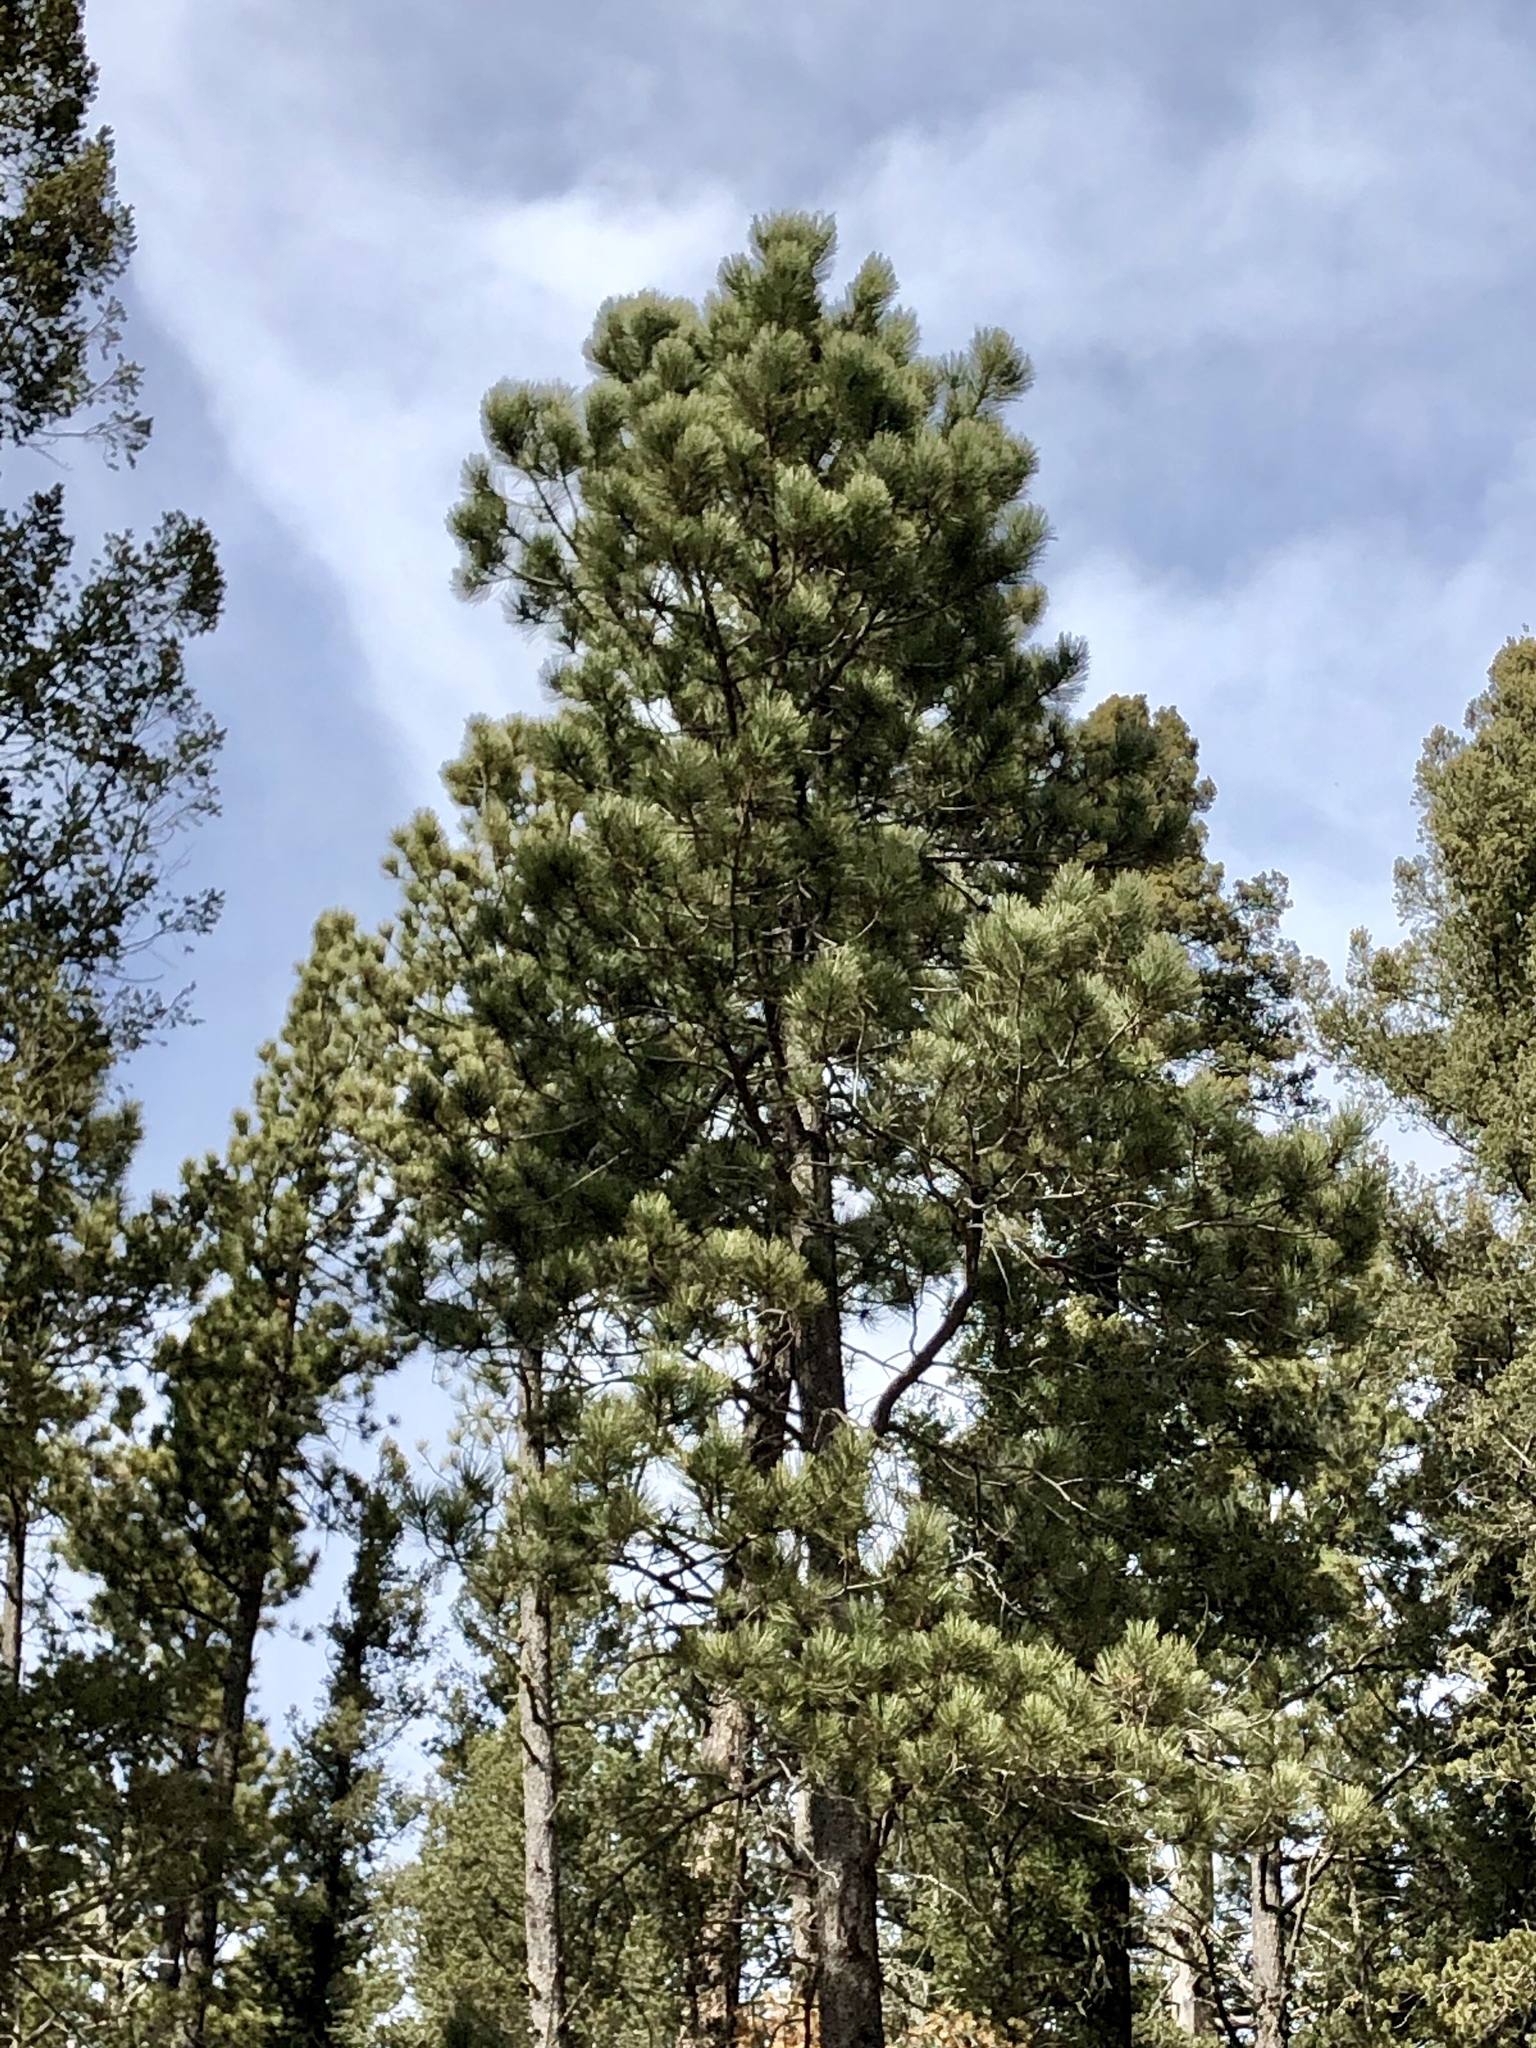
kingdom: Plantae
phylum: Tracheophyta
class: Pinopsida
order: Pinales
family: Pinaceae
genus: Pinus
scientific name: Pinus ponderosa
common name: Western yellow-pine
